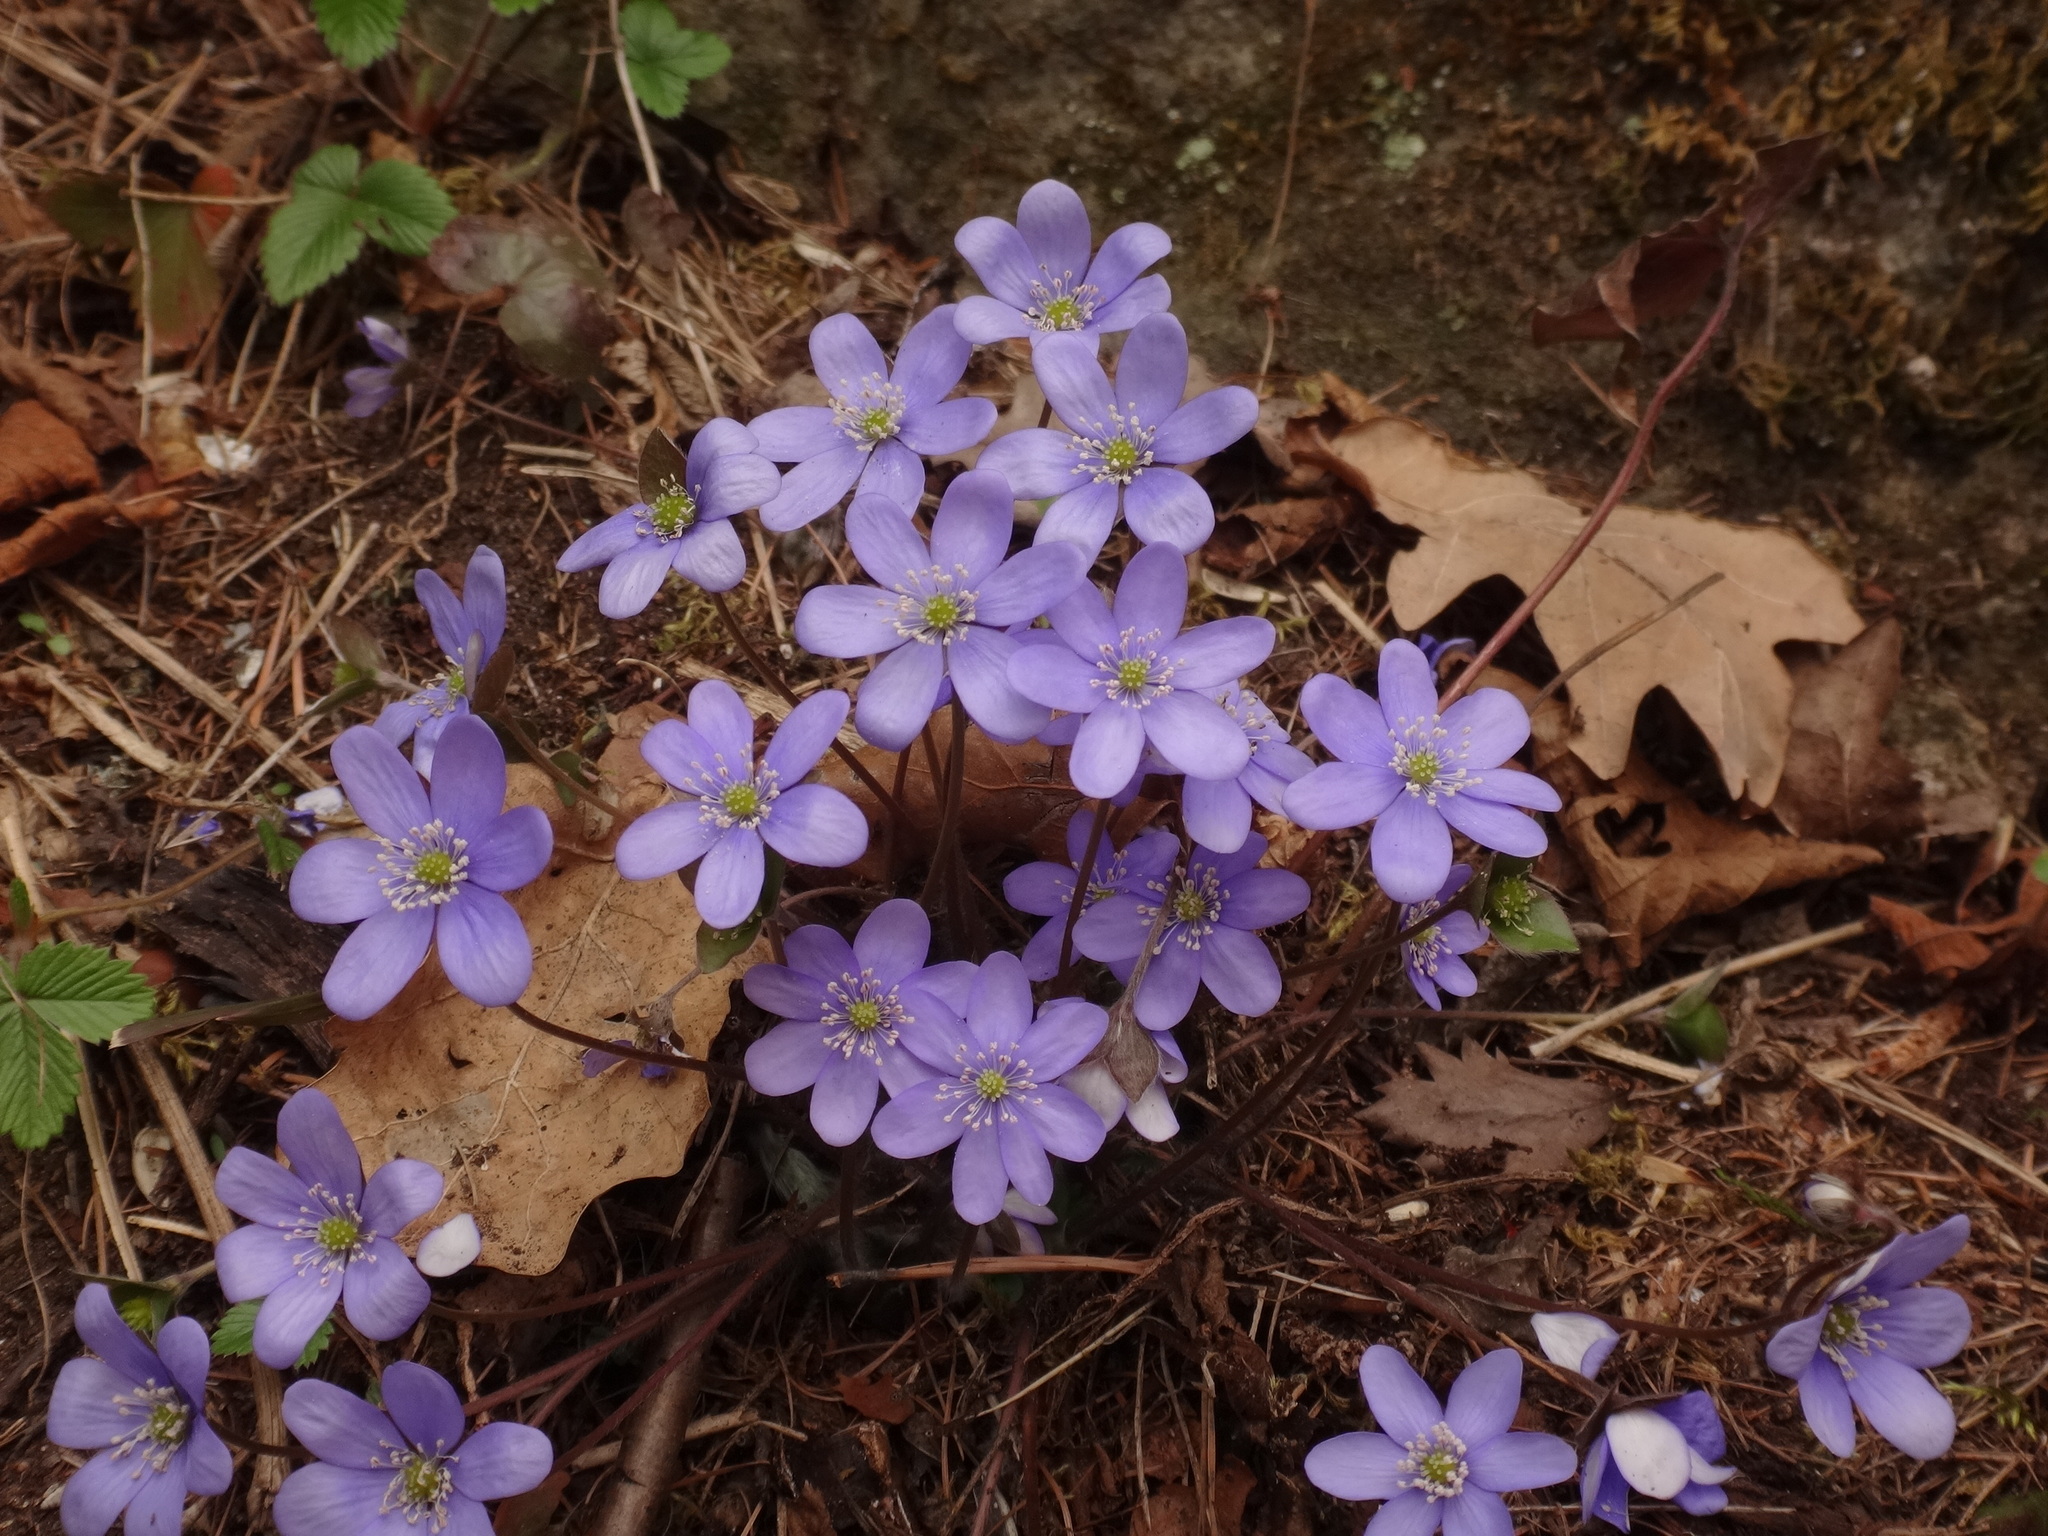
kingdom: Plantae
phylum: Tracheophyta
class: Magnoliopsida
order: Ranunculales
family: Ranunculaceae
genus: Hepatica
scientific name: Hepatica nobilis
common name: Liverleaf
